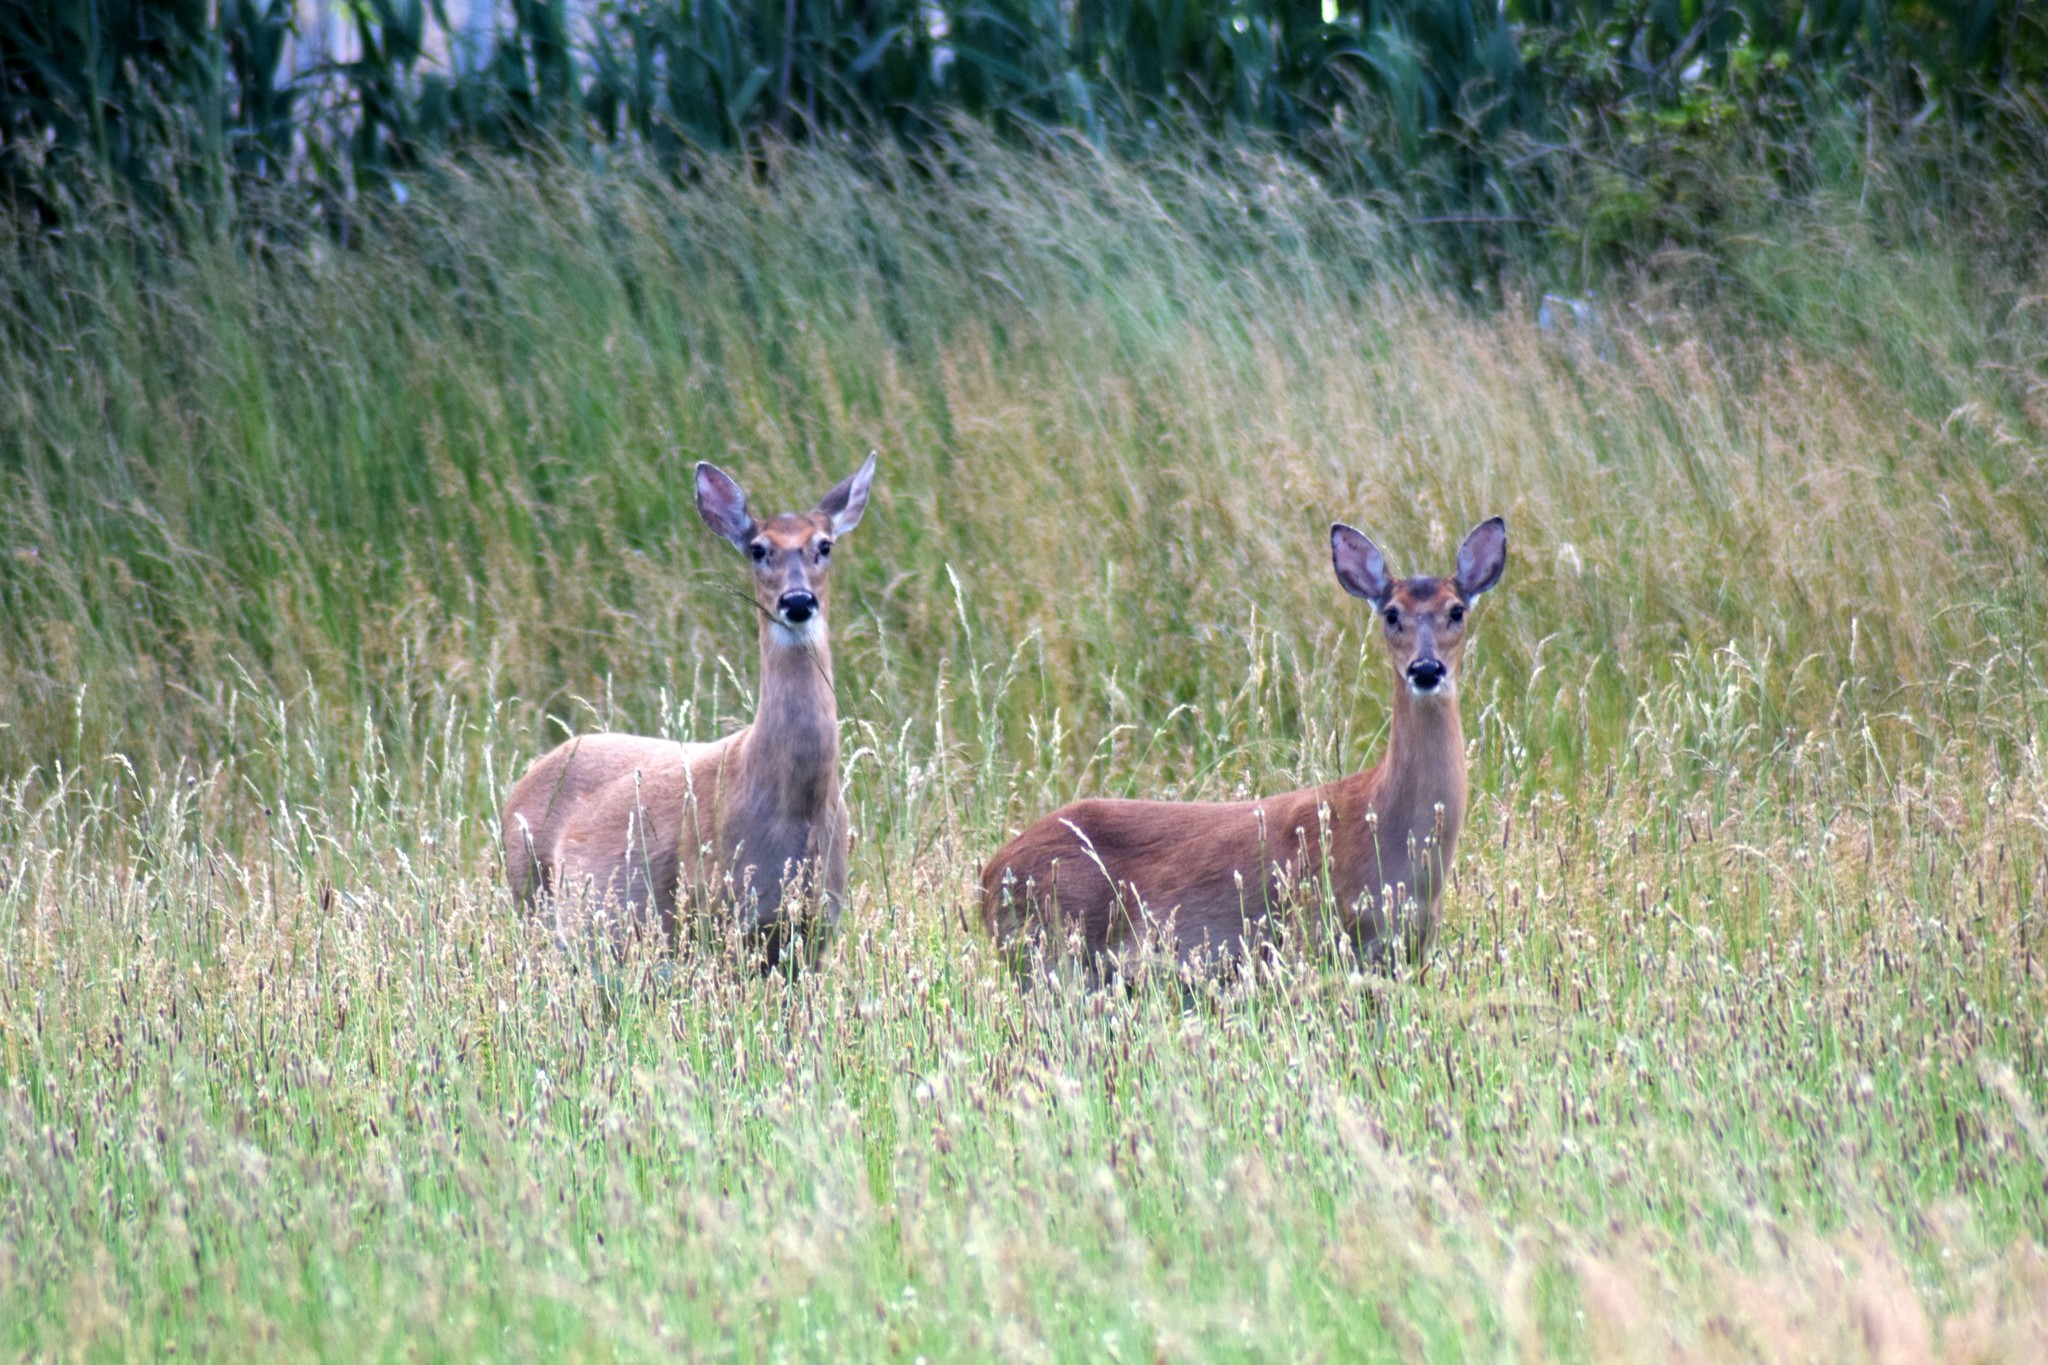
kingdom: Animalia
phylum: Chordata
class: Mammalia
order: Artiodactyla
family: Cervidae
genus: Odocoileus
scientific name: Odocoileus virginianus
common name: White-tailed deer
